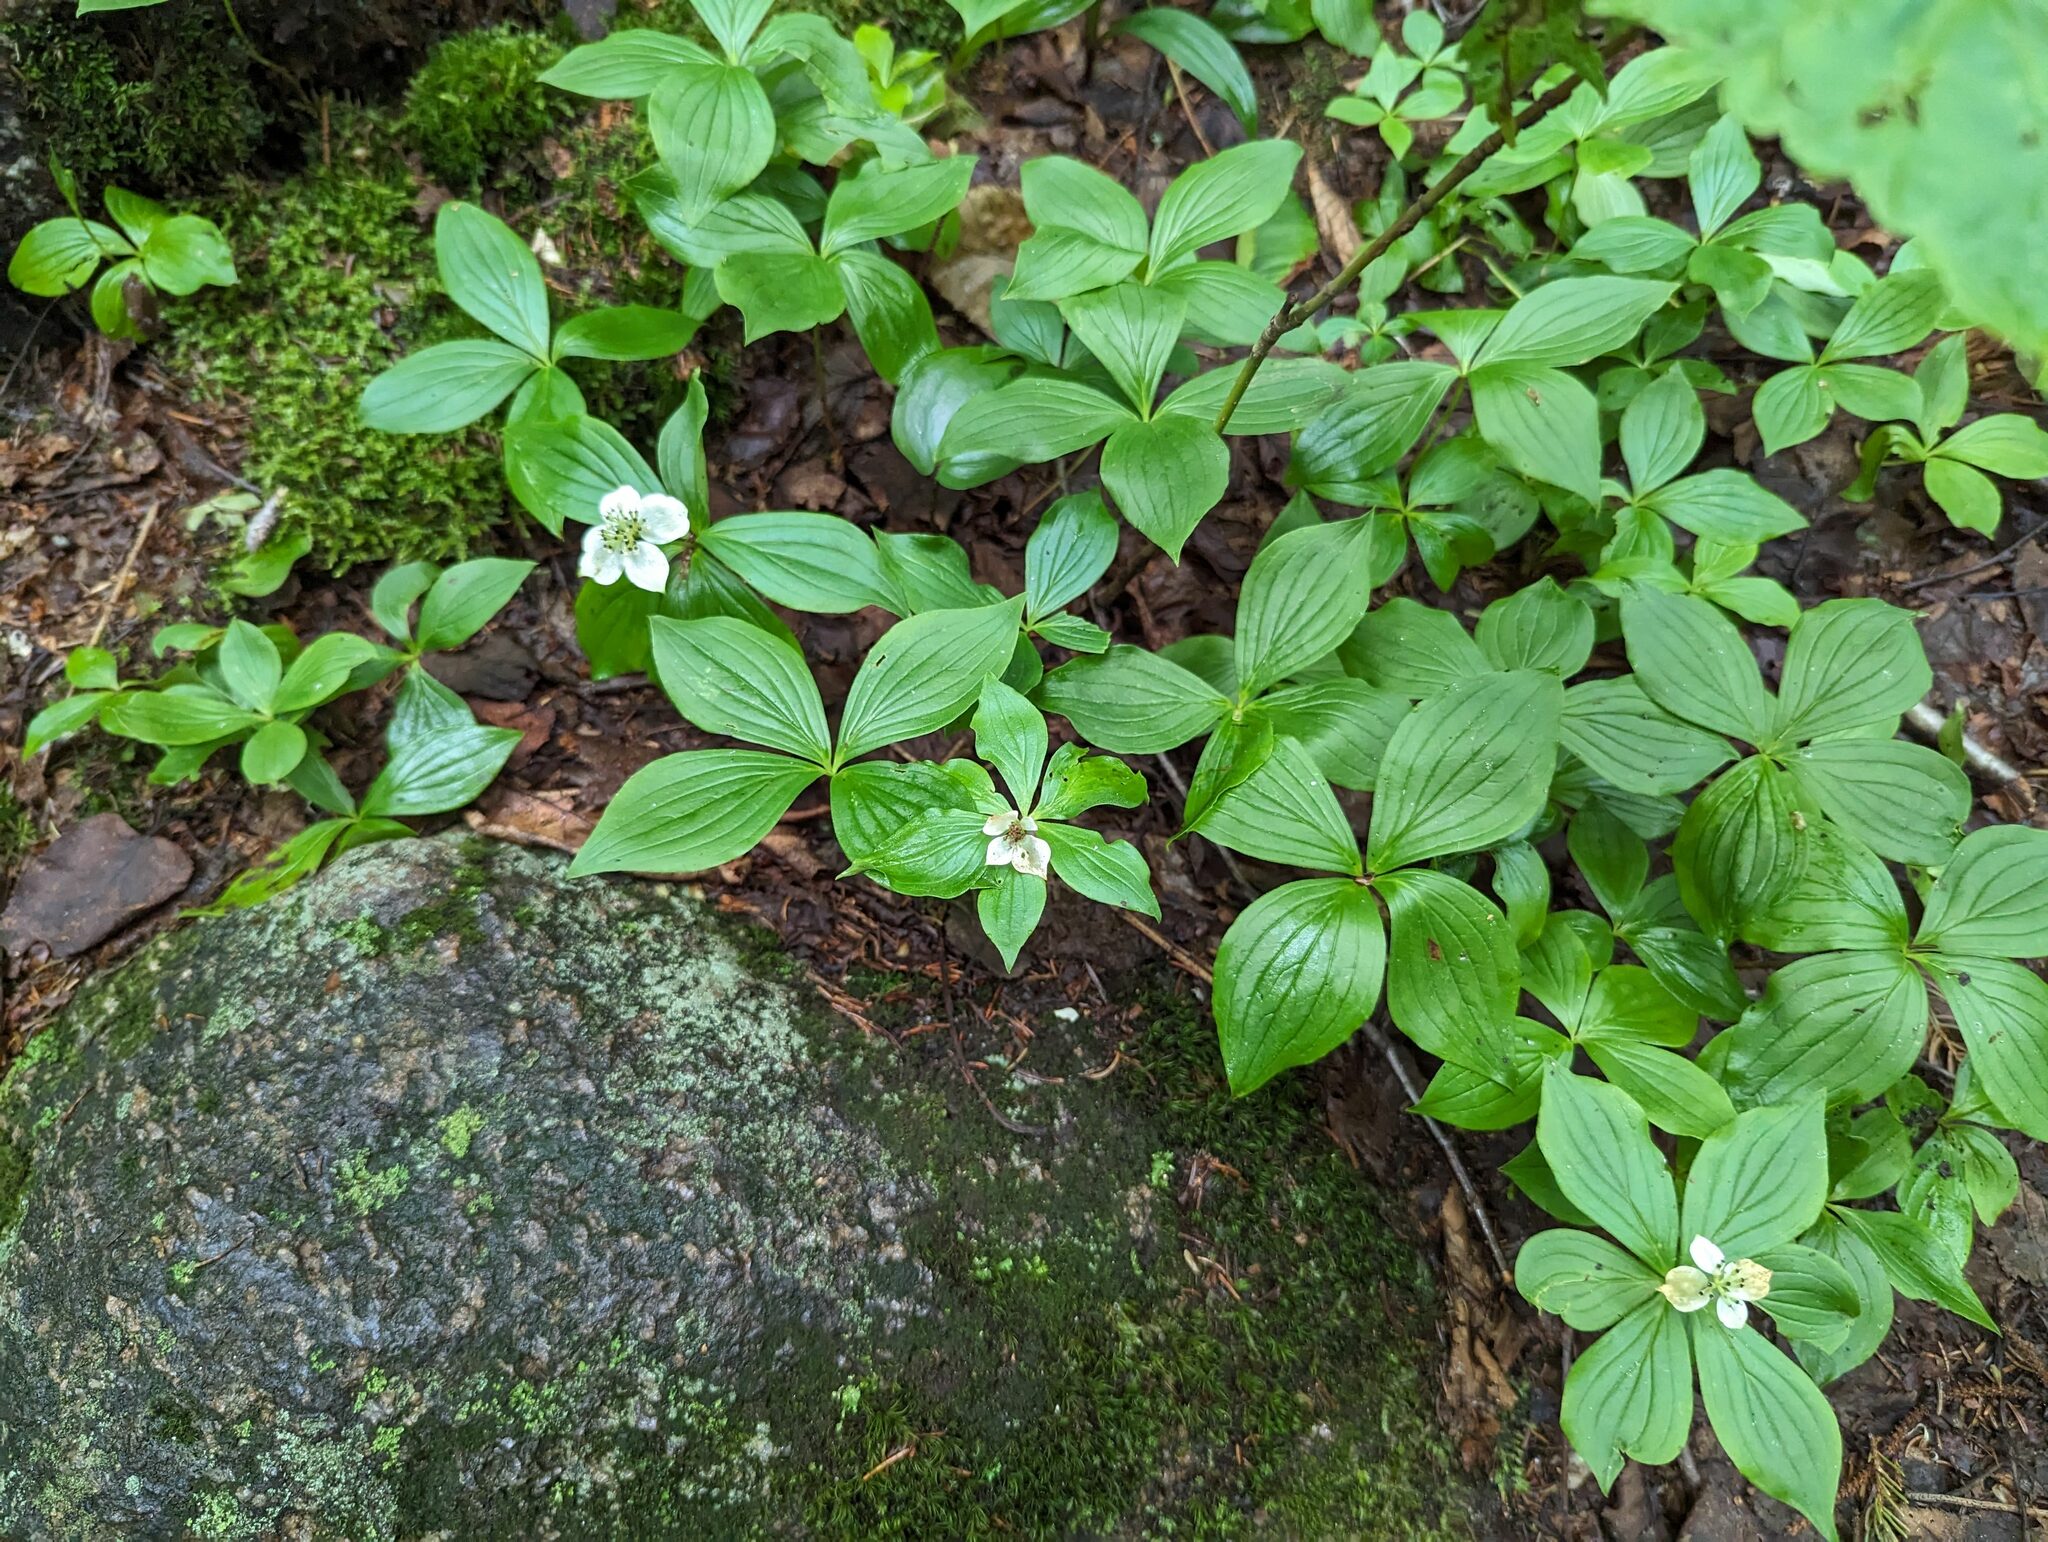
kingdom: Plantae
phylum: Tracheophyta
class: Magnoliopsida
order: Cornales
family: Cornaceae
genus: Cornus
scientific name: Cornus canadensis
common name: Creeping dogwood
